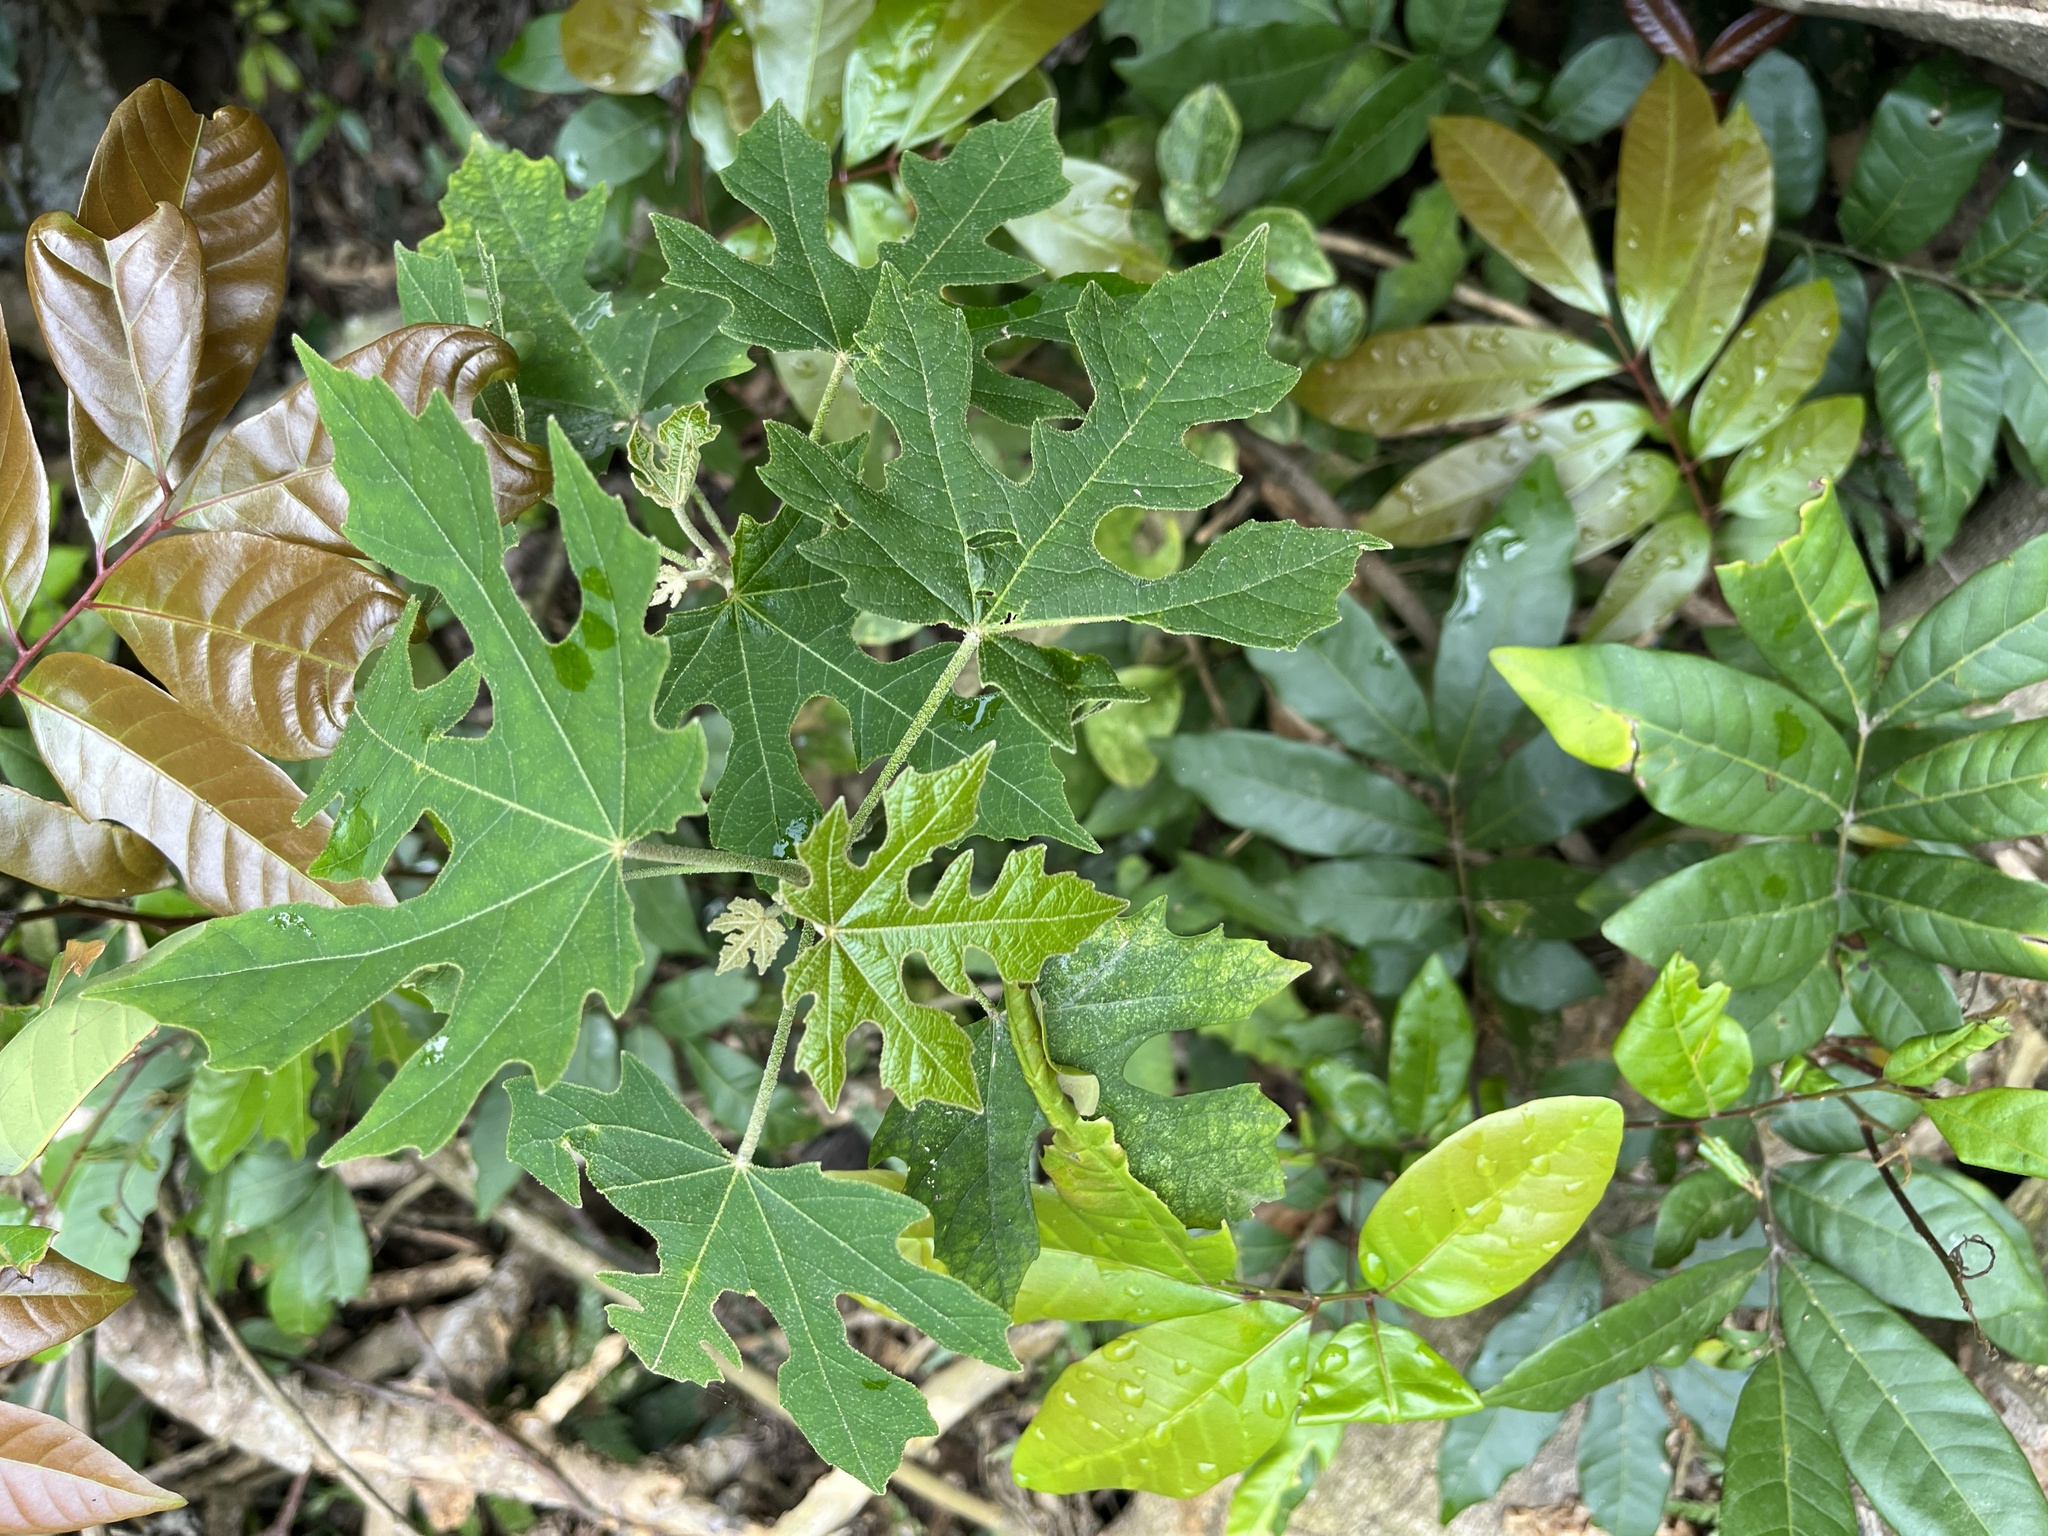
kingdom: Plantae
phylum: Tracheophyta
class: Magnoliopsida
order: Malpighiales
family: Euphorbiaceae
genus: Melanolepis
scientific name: Melanolepis multiglandulosa
